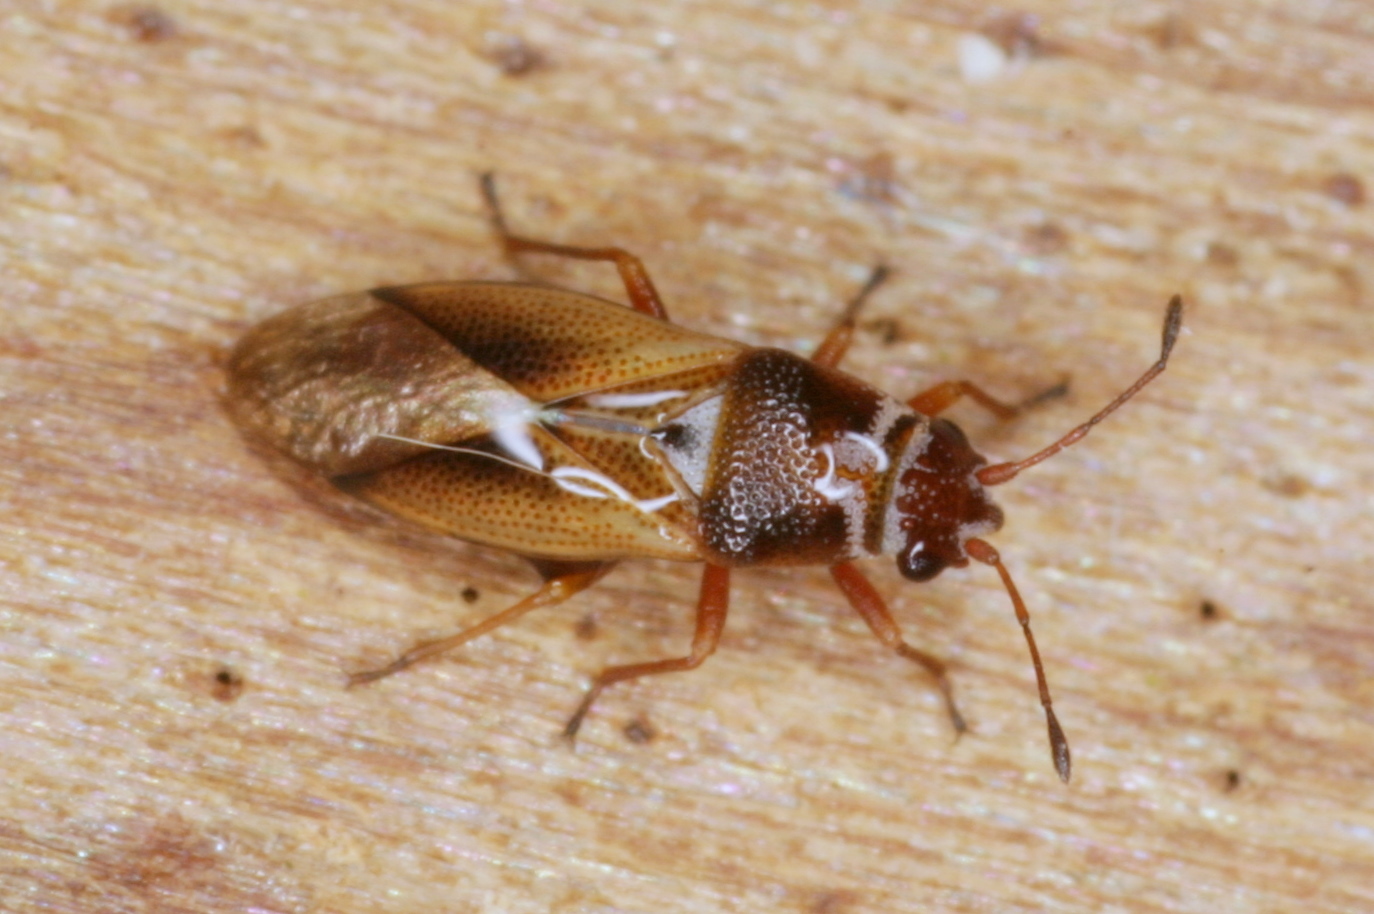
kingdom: Animalia
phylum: Arthropoda
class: Insecta
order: Hemiptera
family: Cymidae
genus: Cymus
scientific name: Cymus melanocephalus
